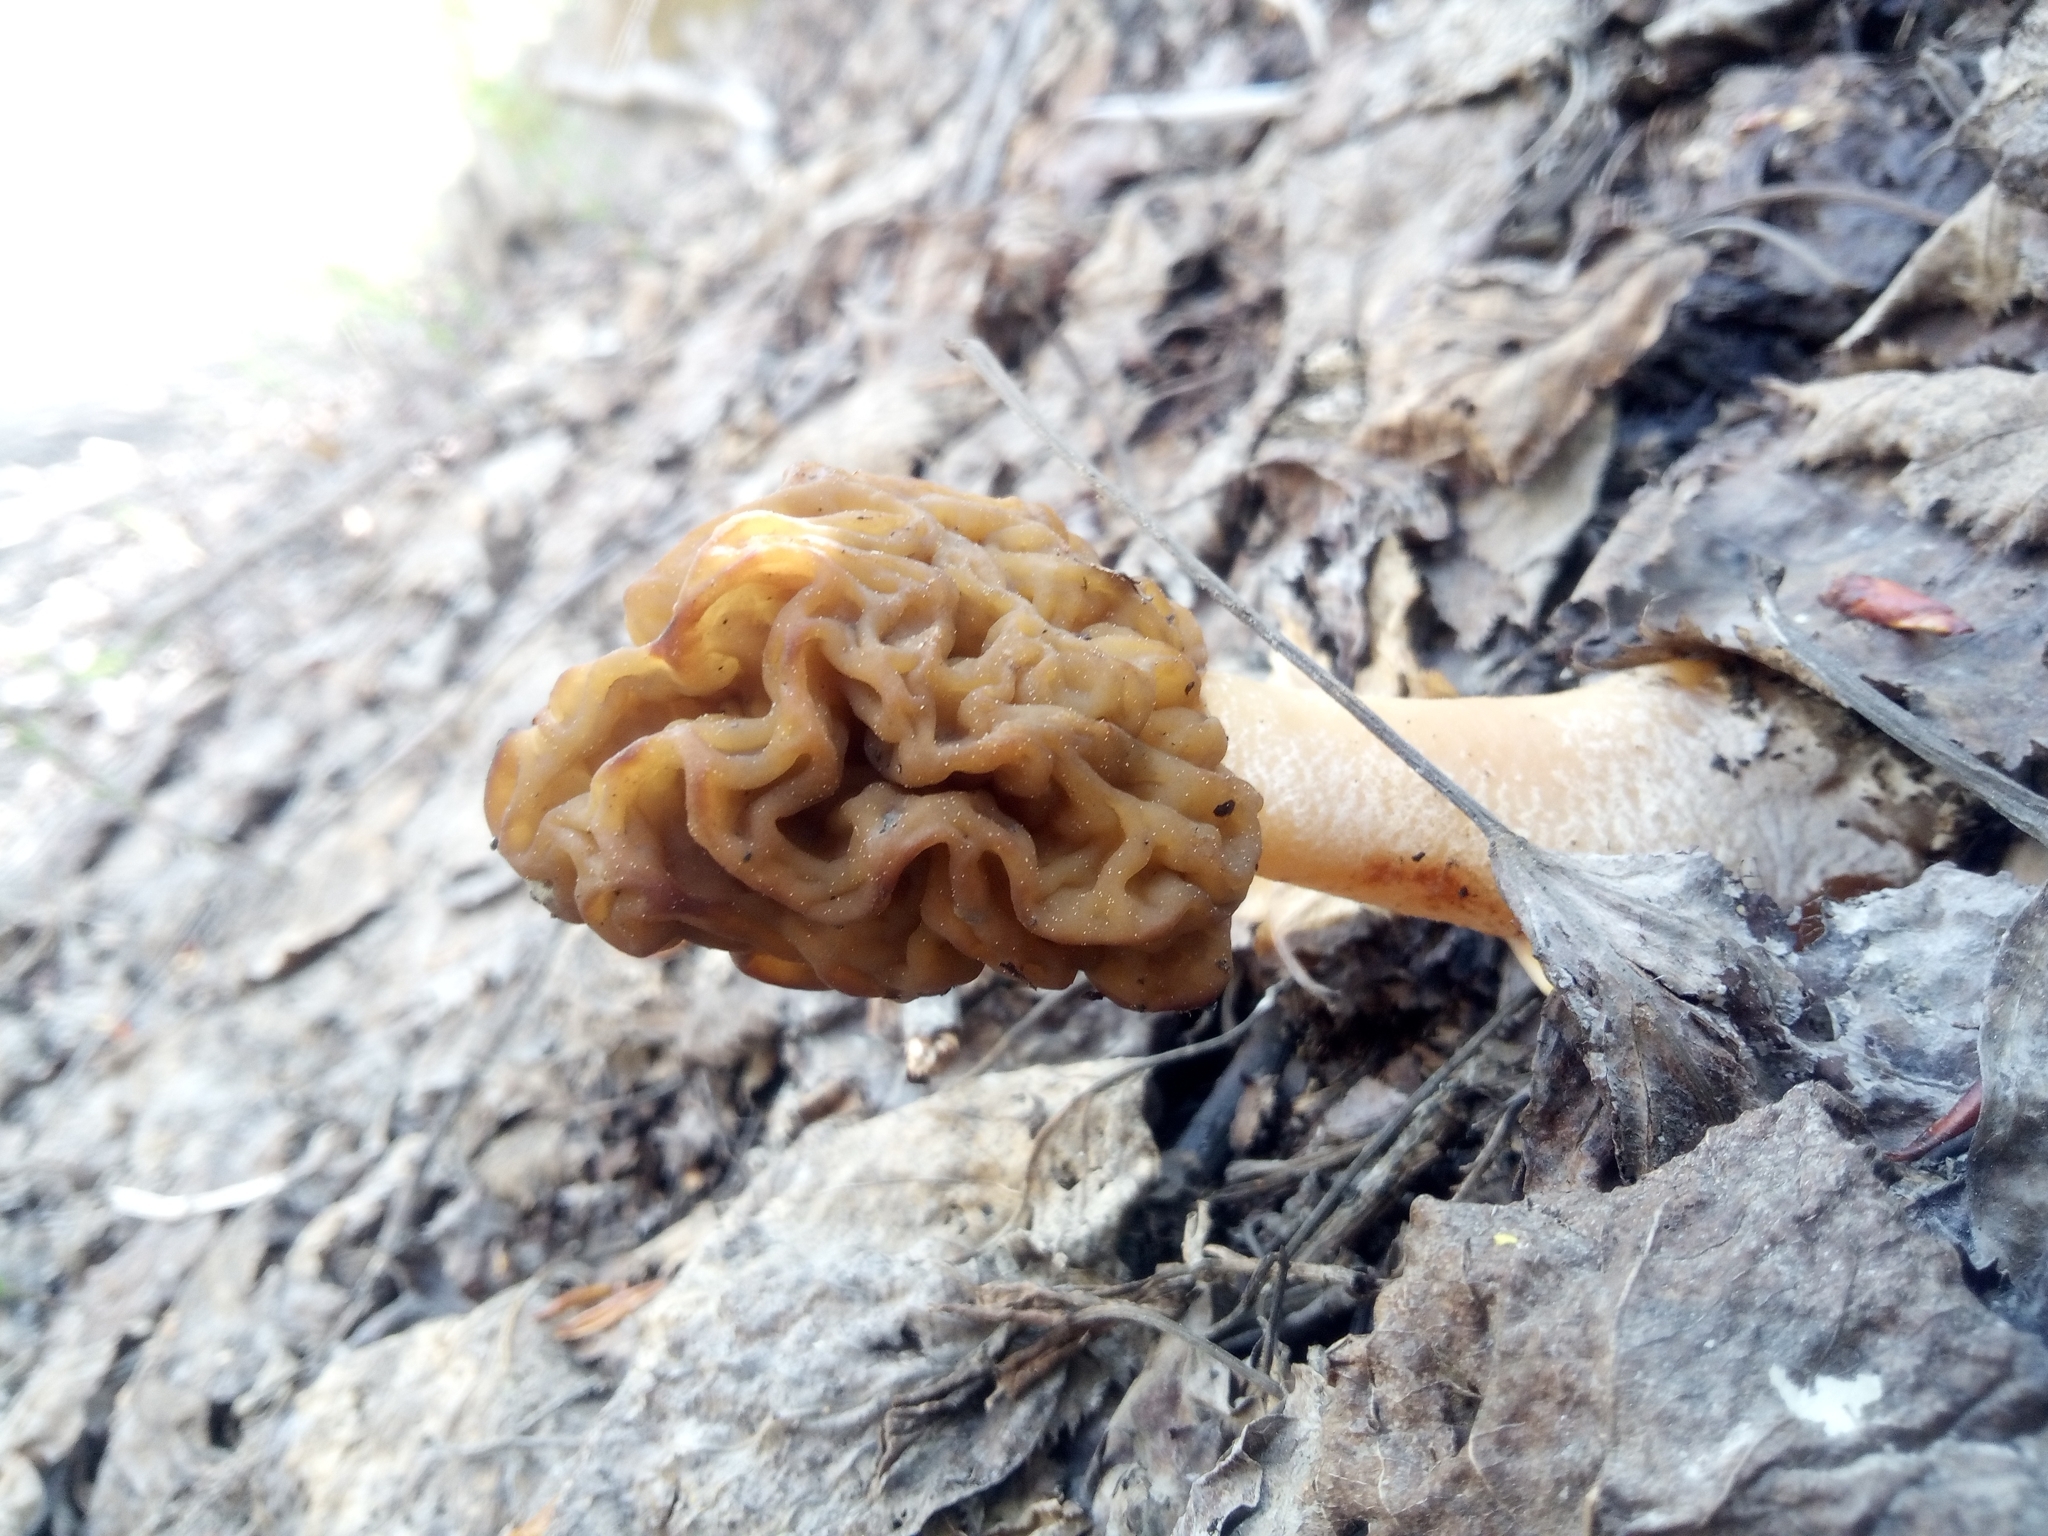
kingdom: Fungi
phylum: Ascomycota
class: Pezizomycetes
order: Pezizales
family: Morchellaceae
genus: Verpa
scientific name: Verpa bohemica
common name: Wrinkled thimble morel
